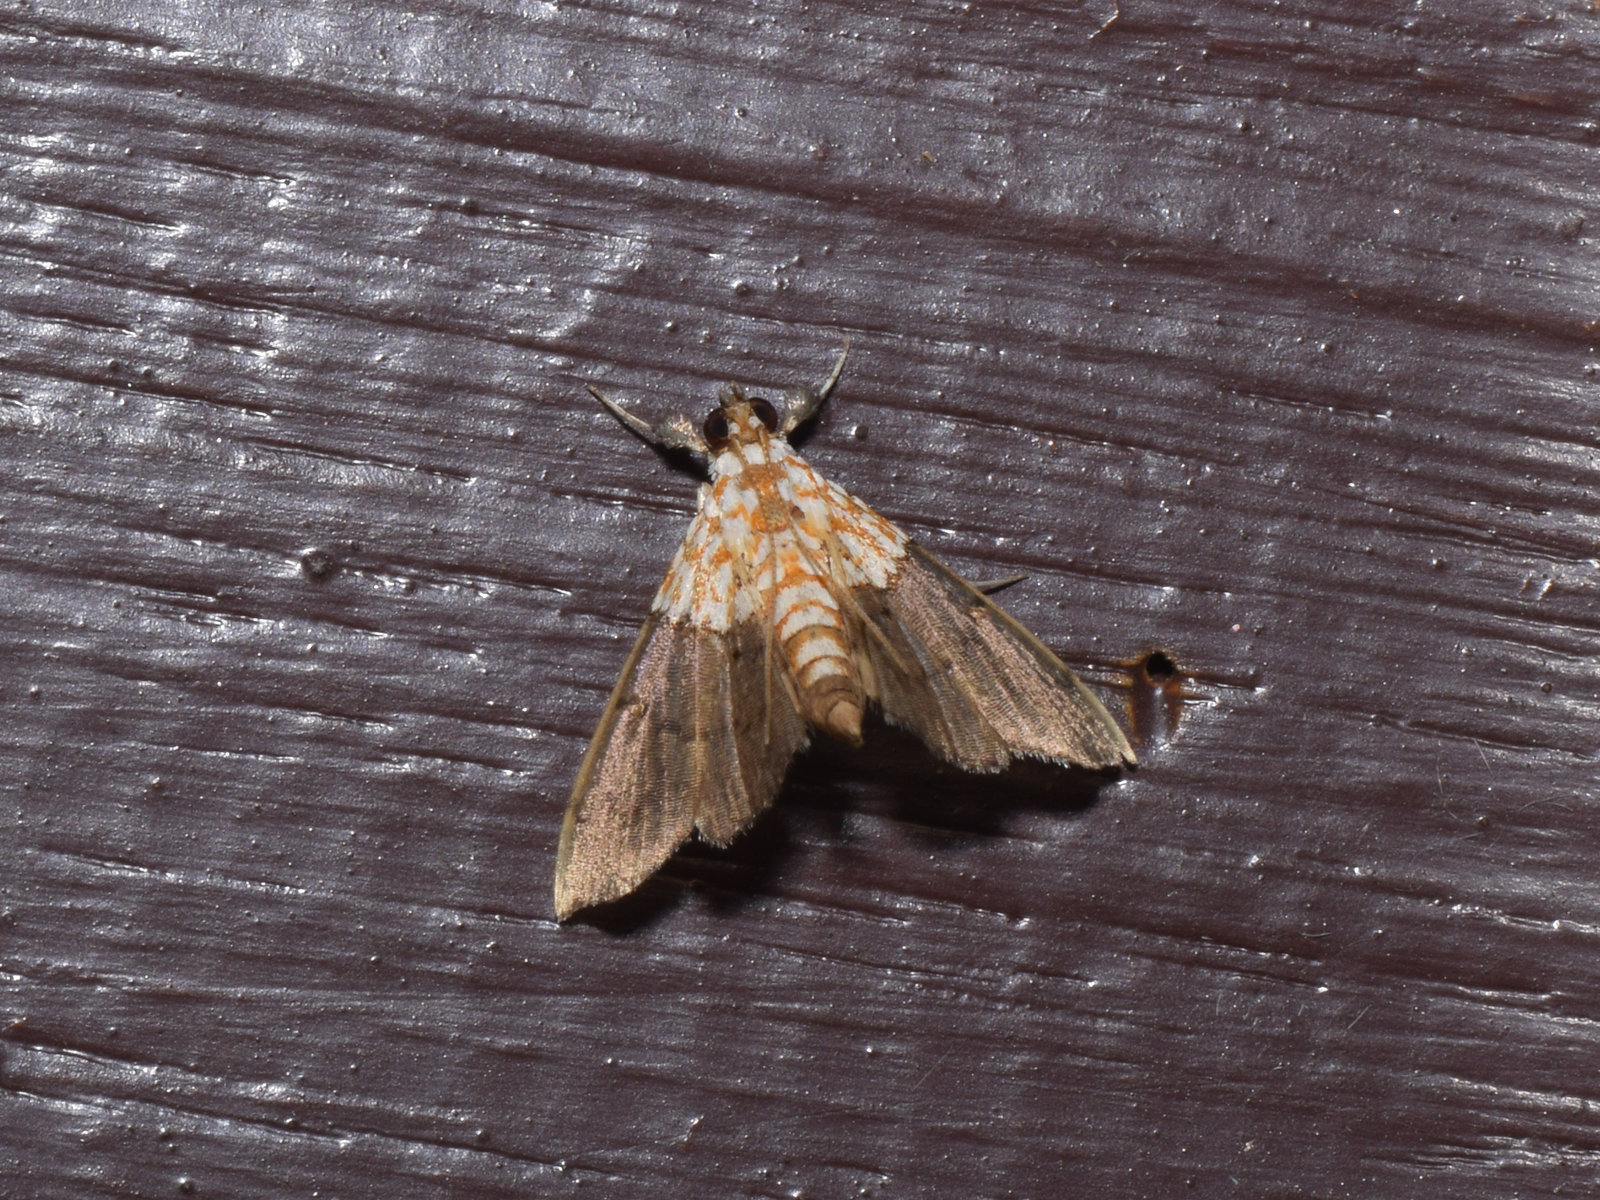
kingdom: Animalia
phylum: Arthropoda
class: Insecta
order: Lepidoptera
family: Crambidae
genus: Agrotera
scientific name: Agrotera basinotata
